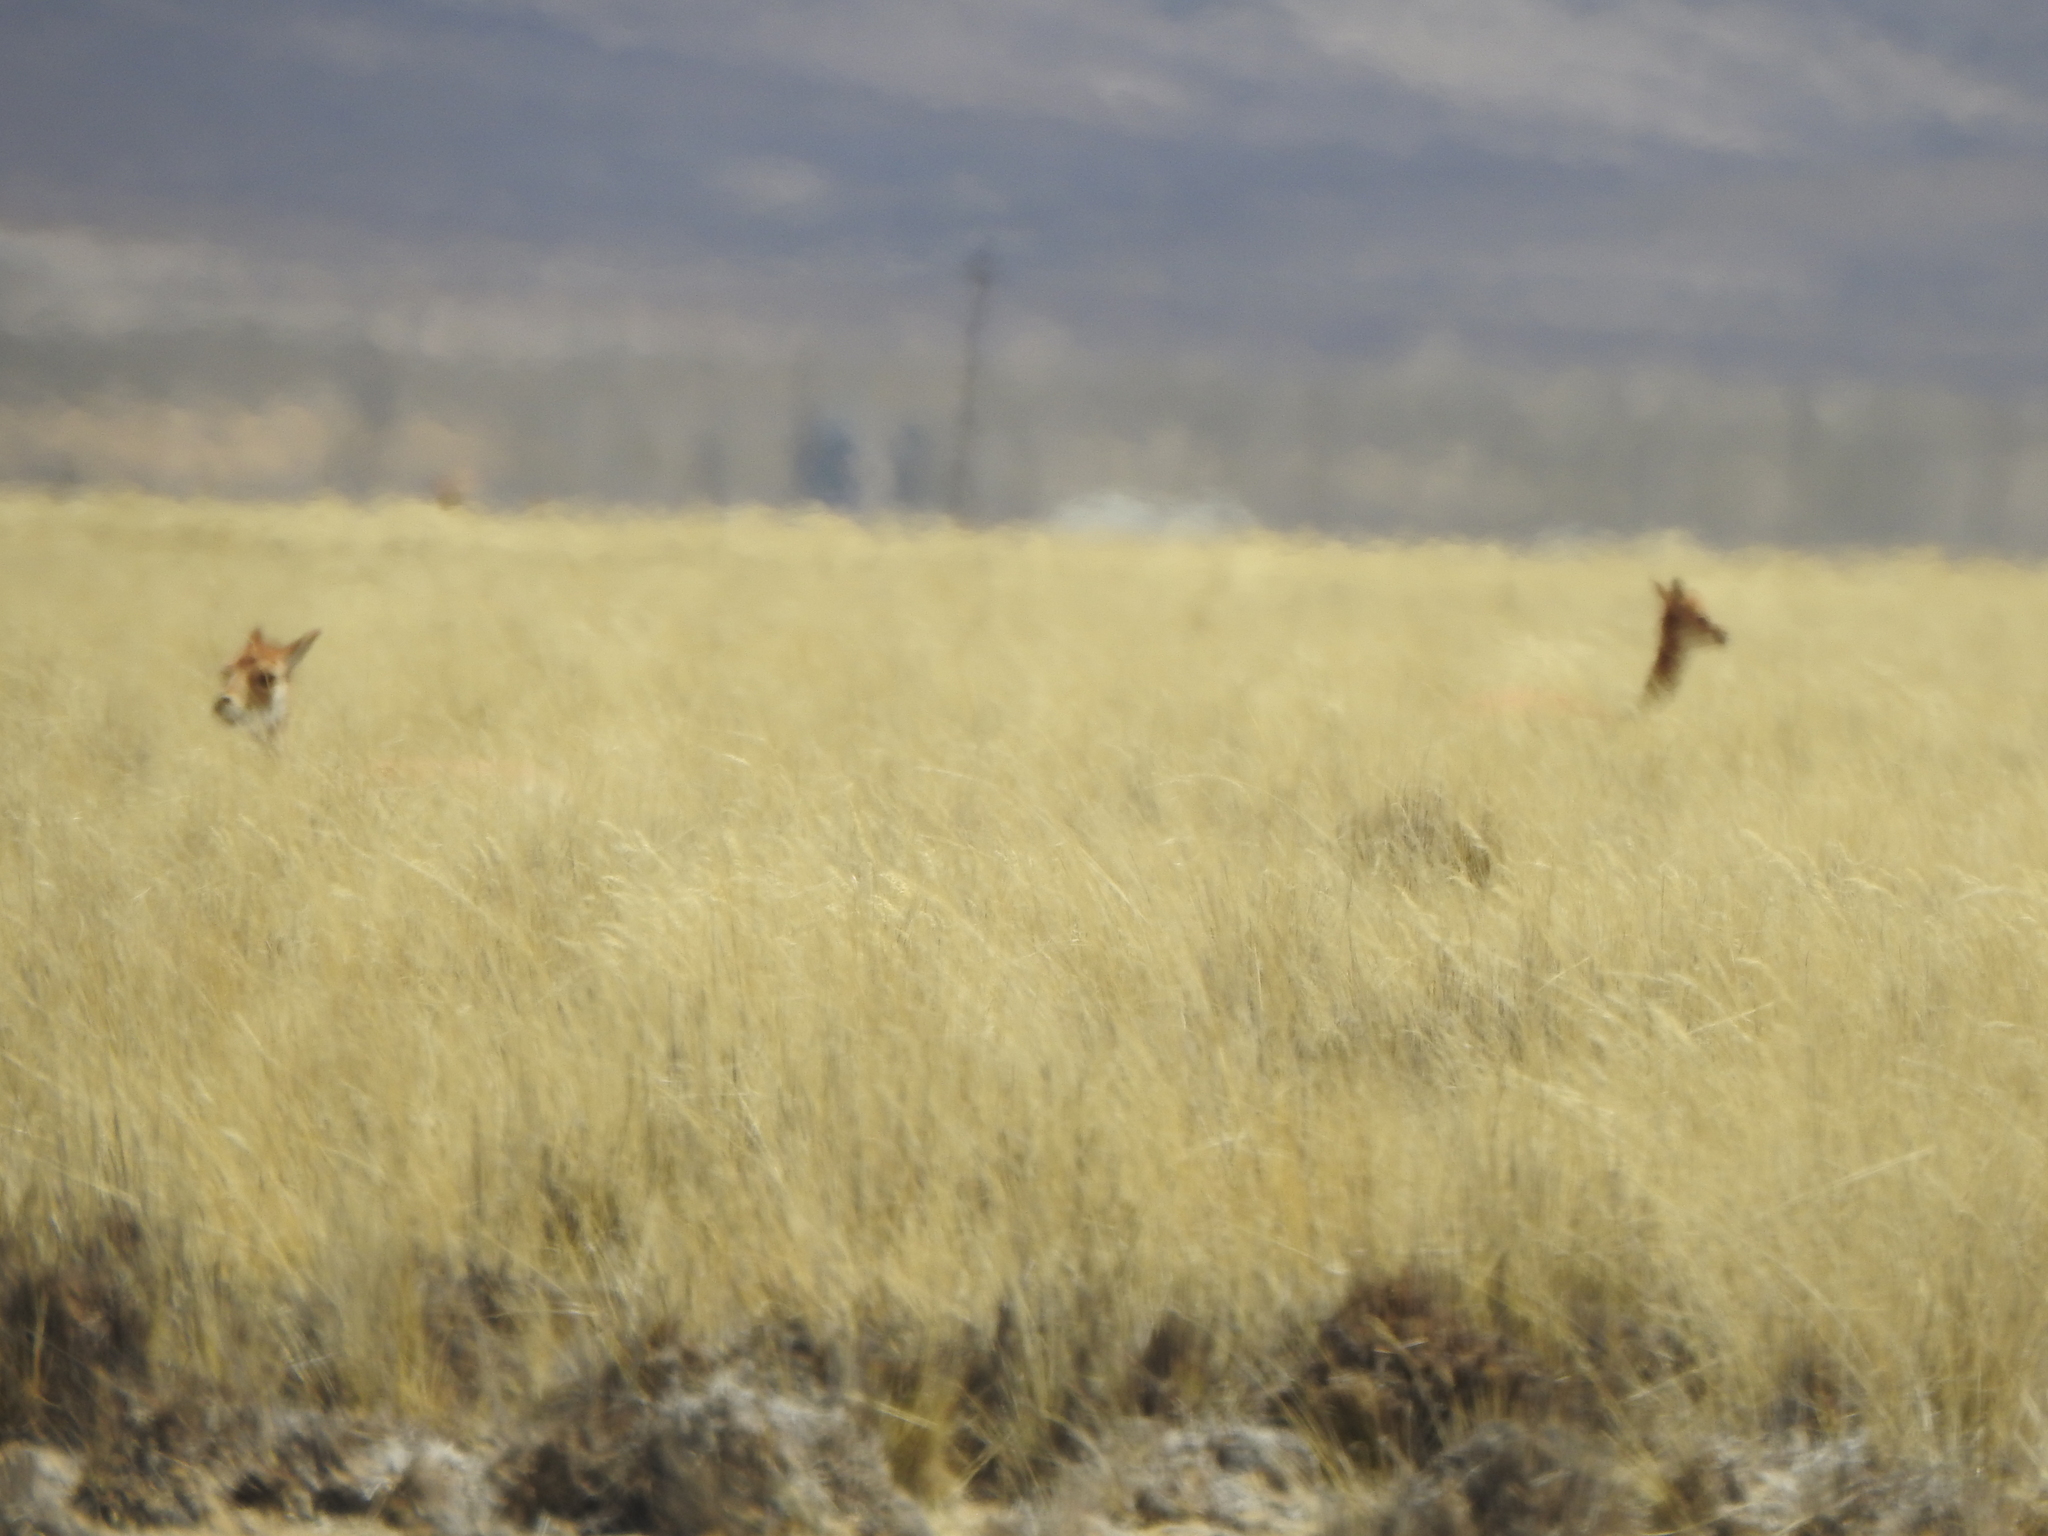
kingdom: Animalia
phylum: Chordata
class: Mammalia
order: Artiodactyla
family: Camelidae
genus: Vicugna
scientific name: Vicugna vicugna
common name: Vicugna
